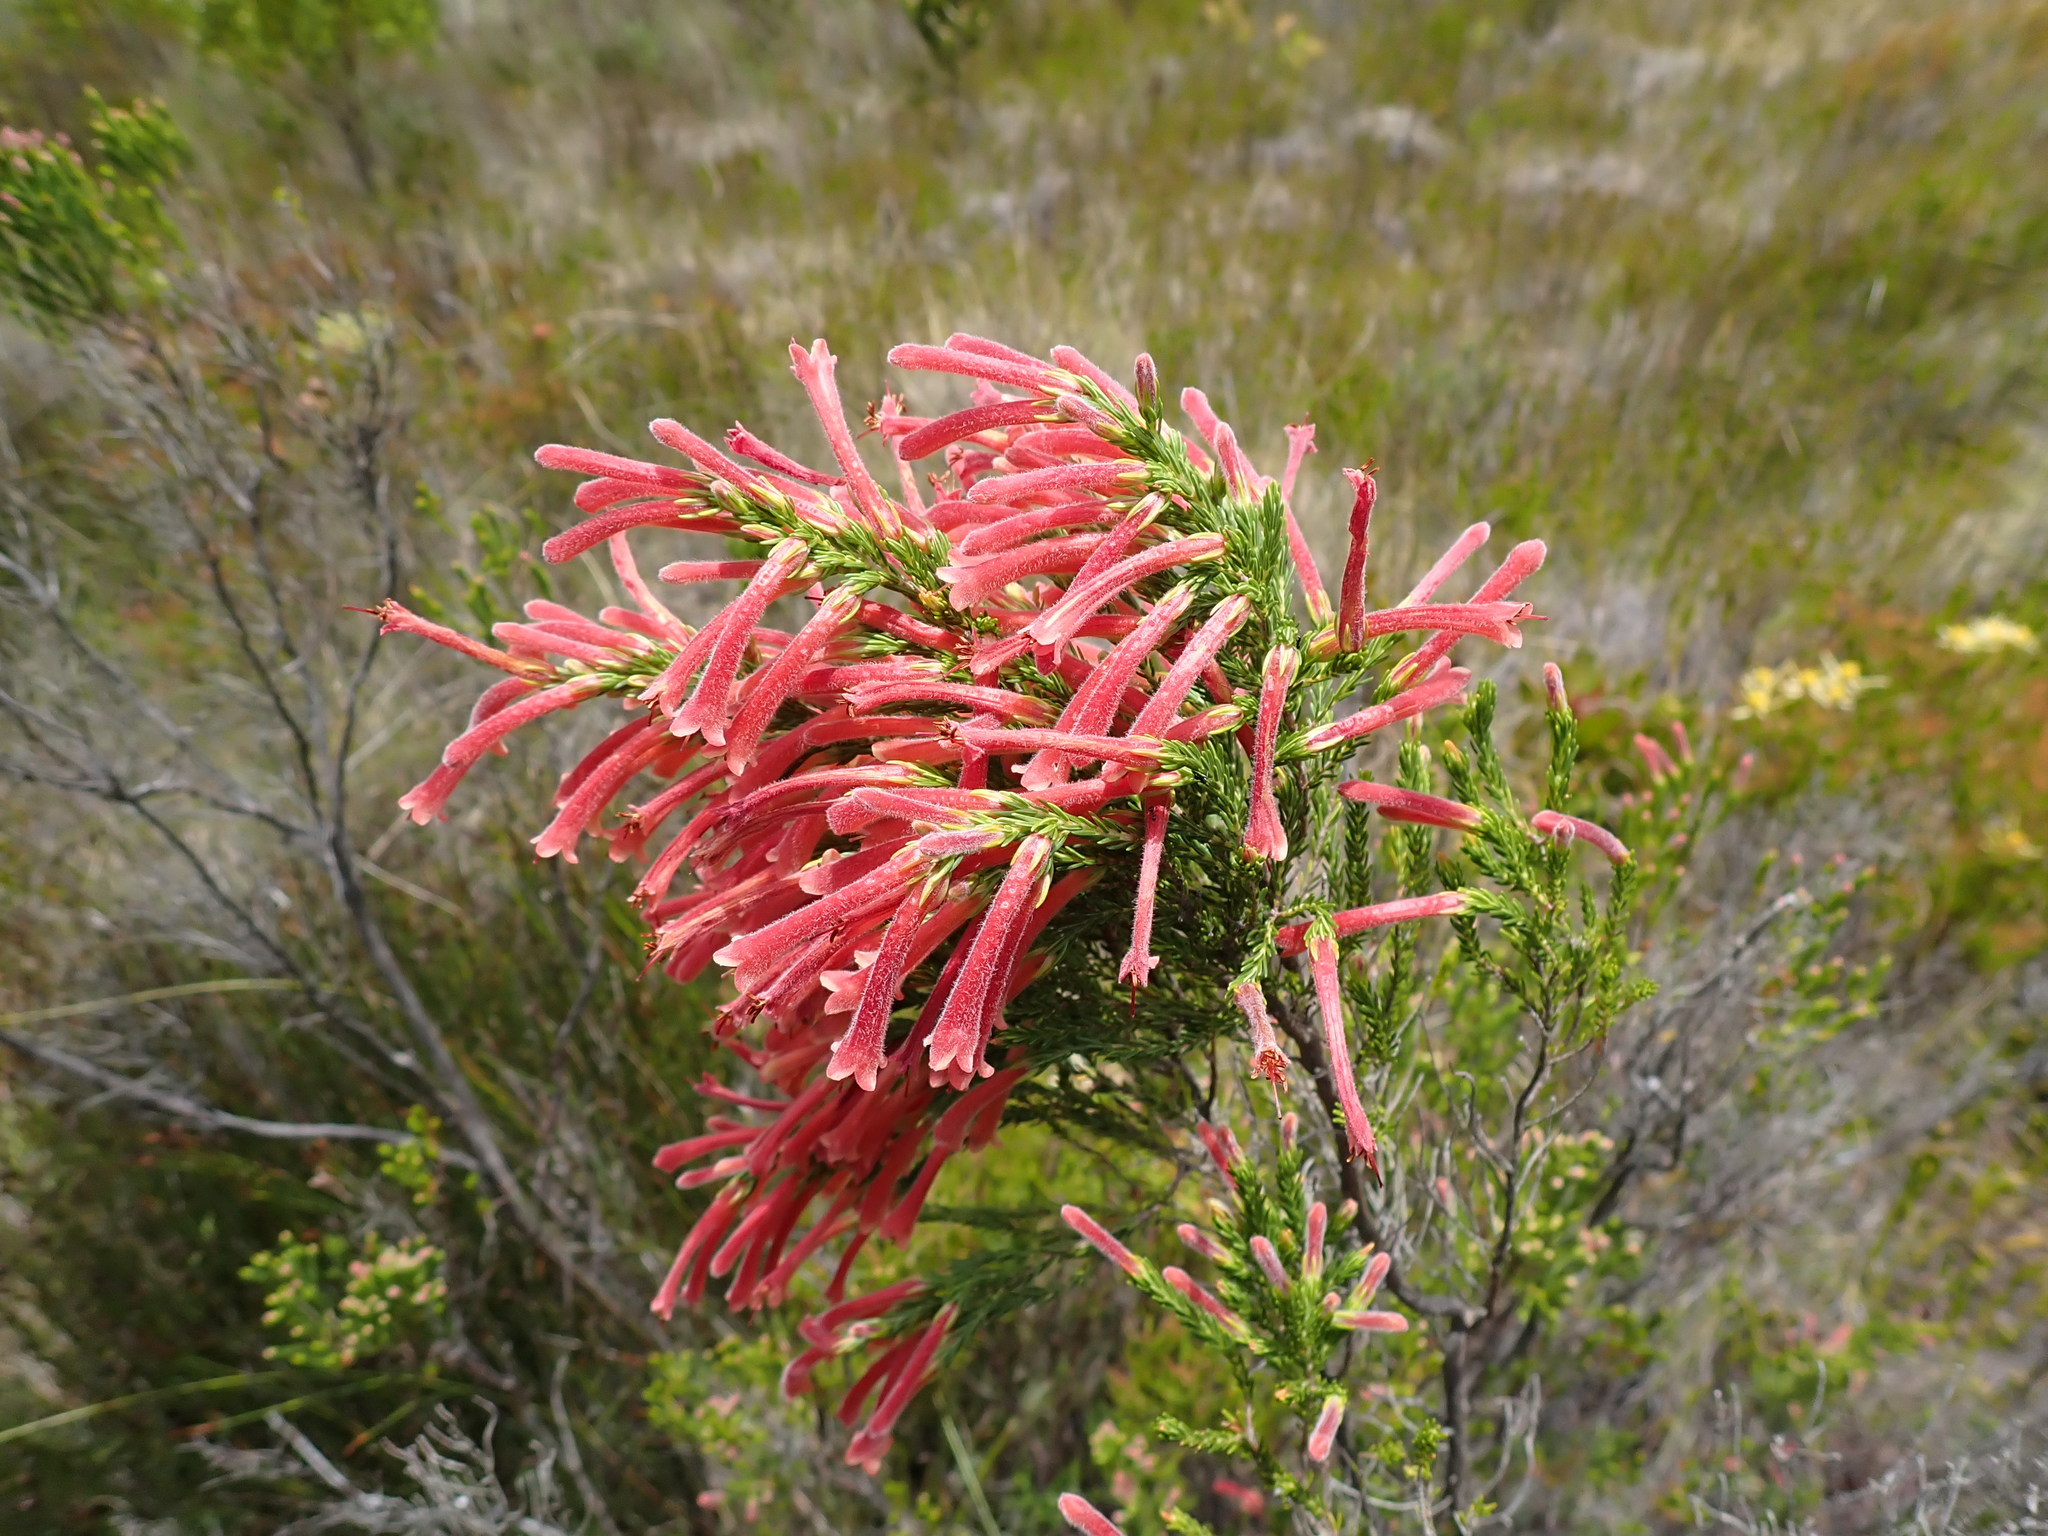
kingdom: Plantae
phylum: Tracheophyta
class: Magnoliopsida
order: Ericales
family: Ericaceae
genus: Erica
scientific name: Erica curviflora
